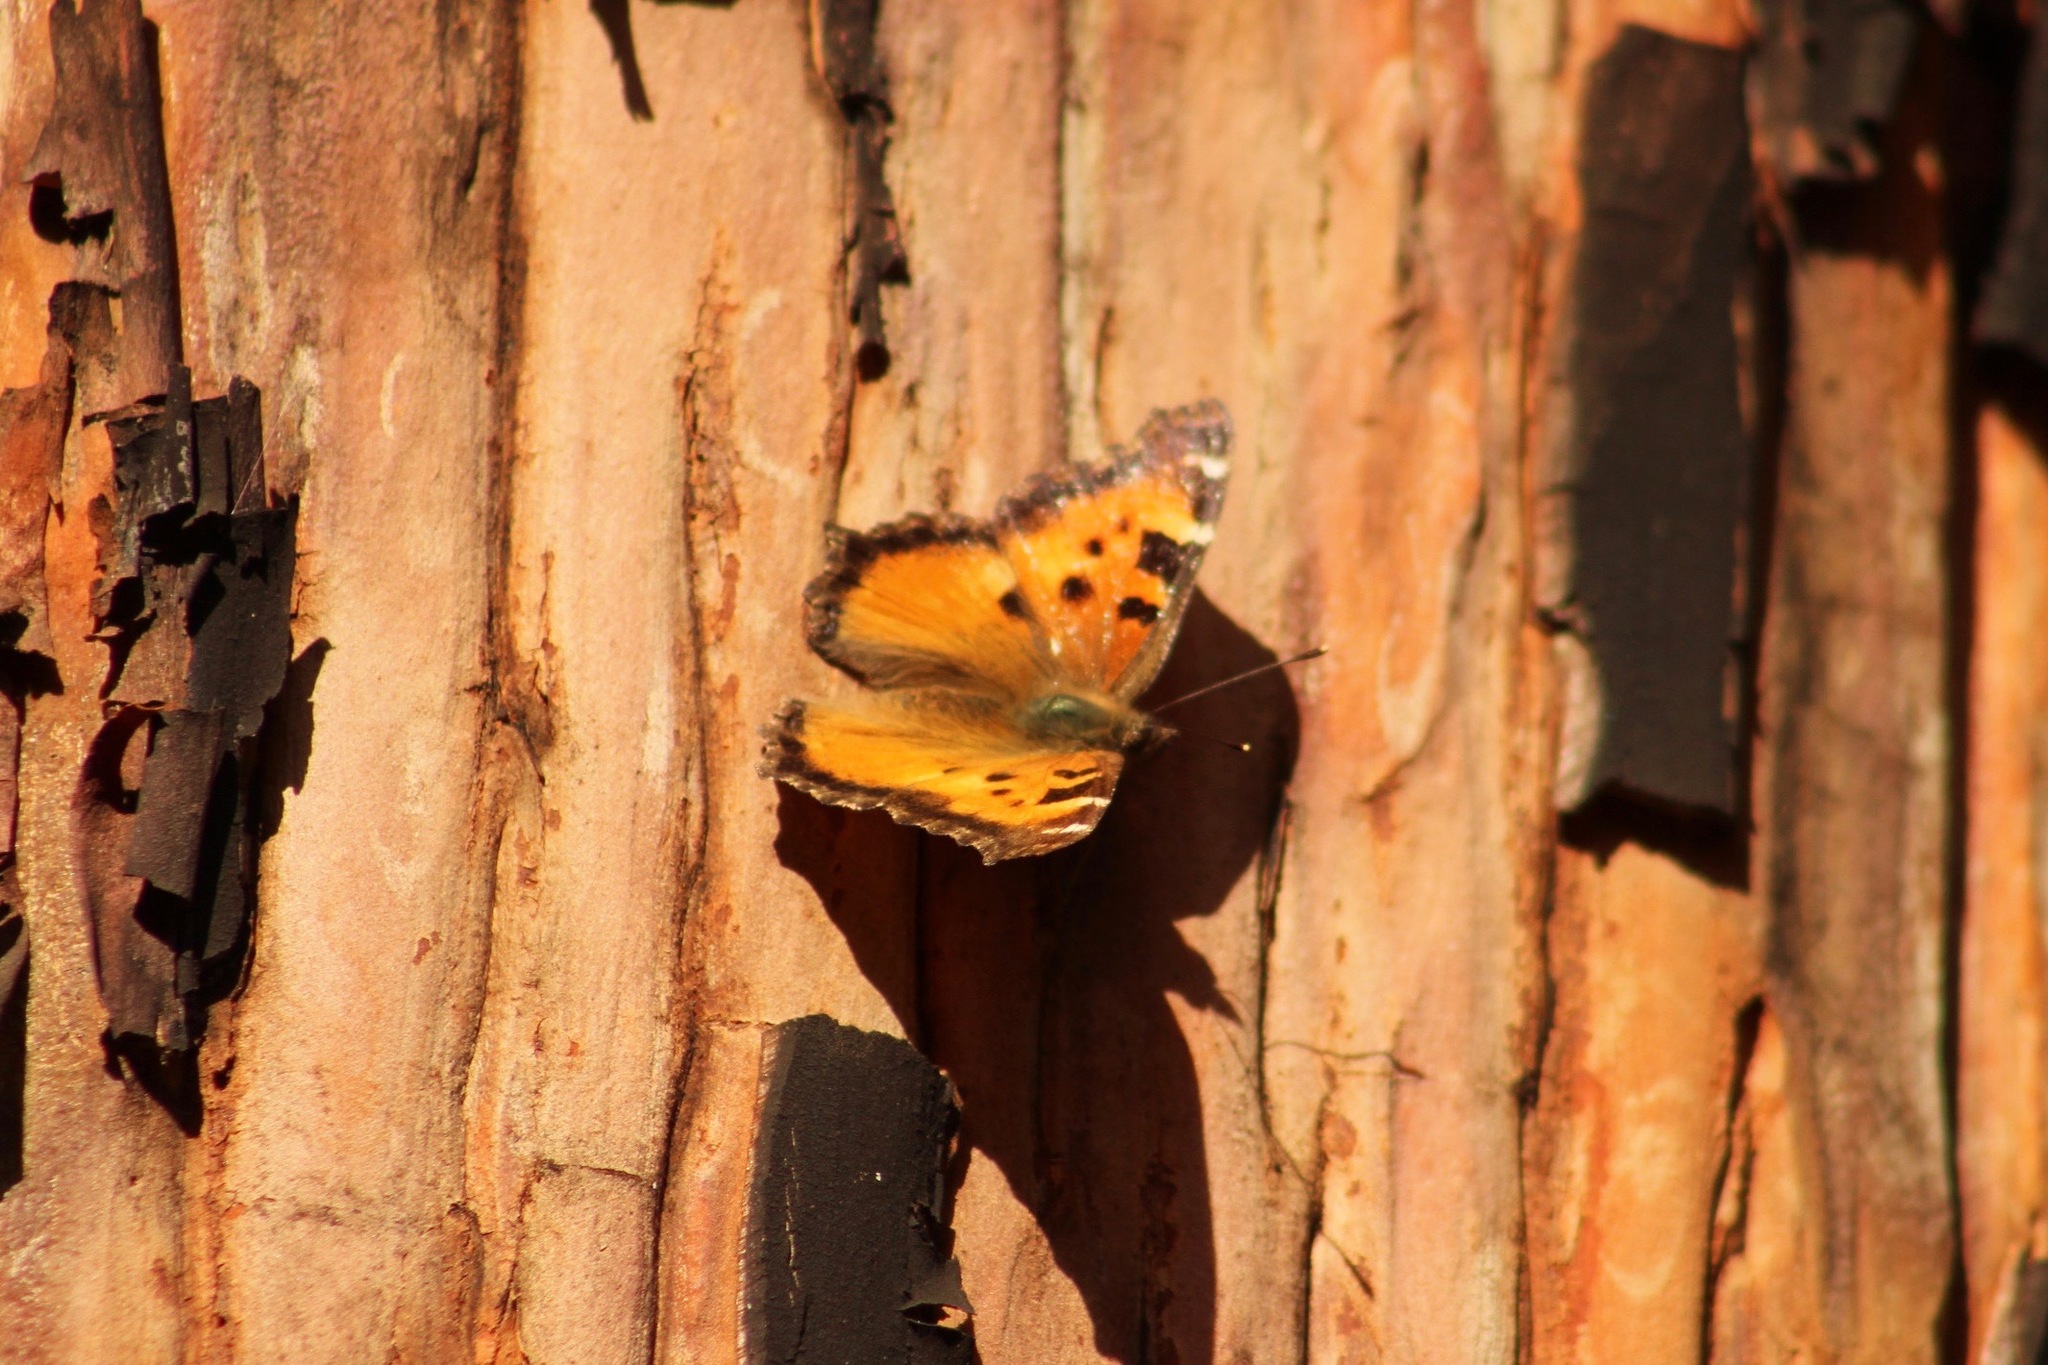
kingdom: Animalia
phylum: Arthropoda
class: Insecta
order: Lepidoptera
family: Nymphalidae
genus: Nymphalis
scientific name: Nymphalis californica
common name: California tortoiseshell
